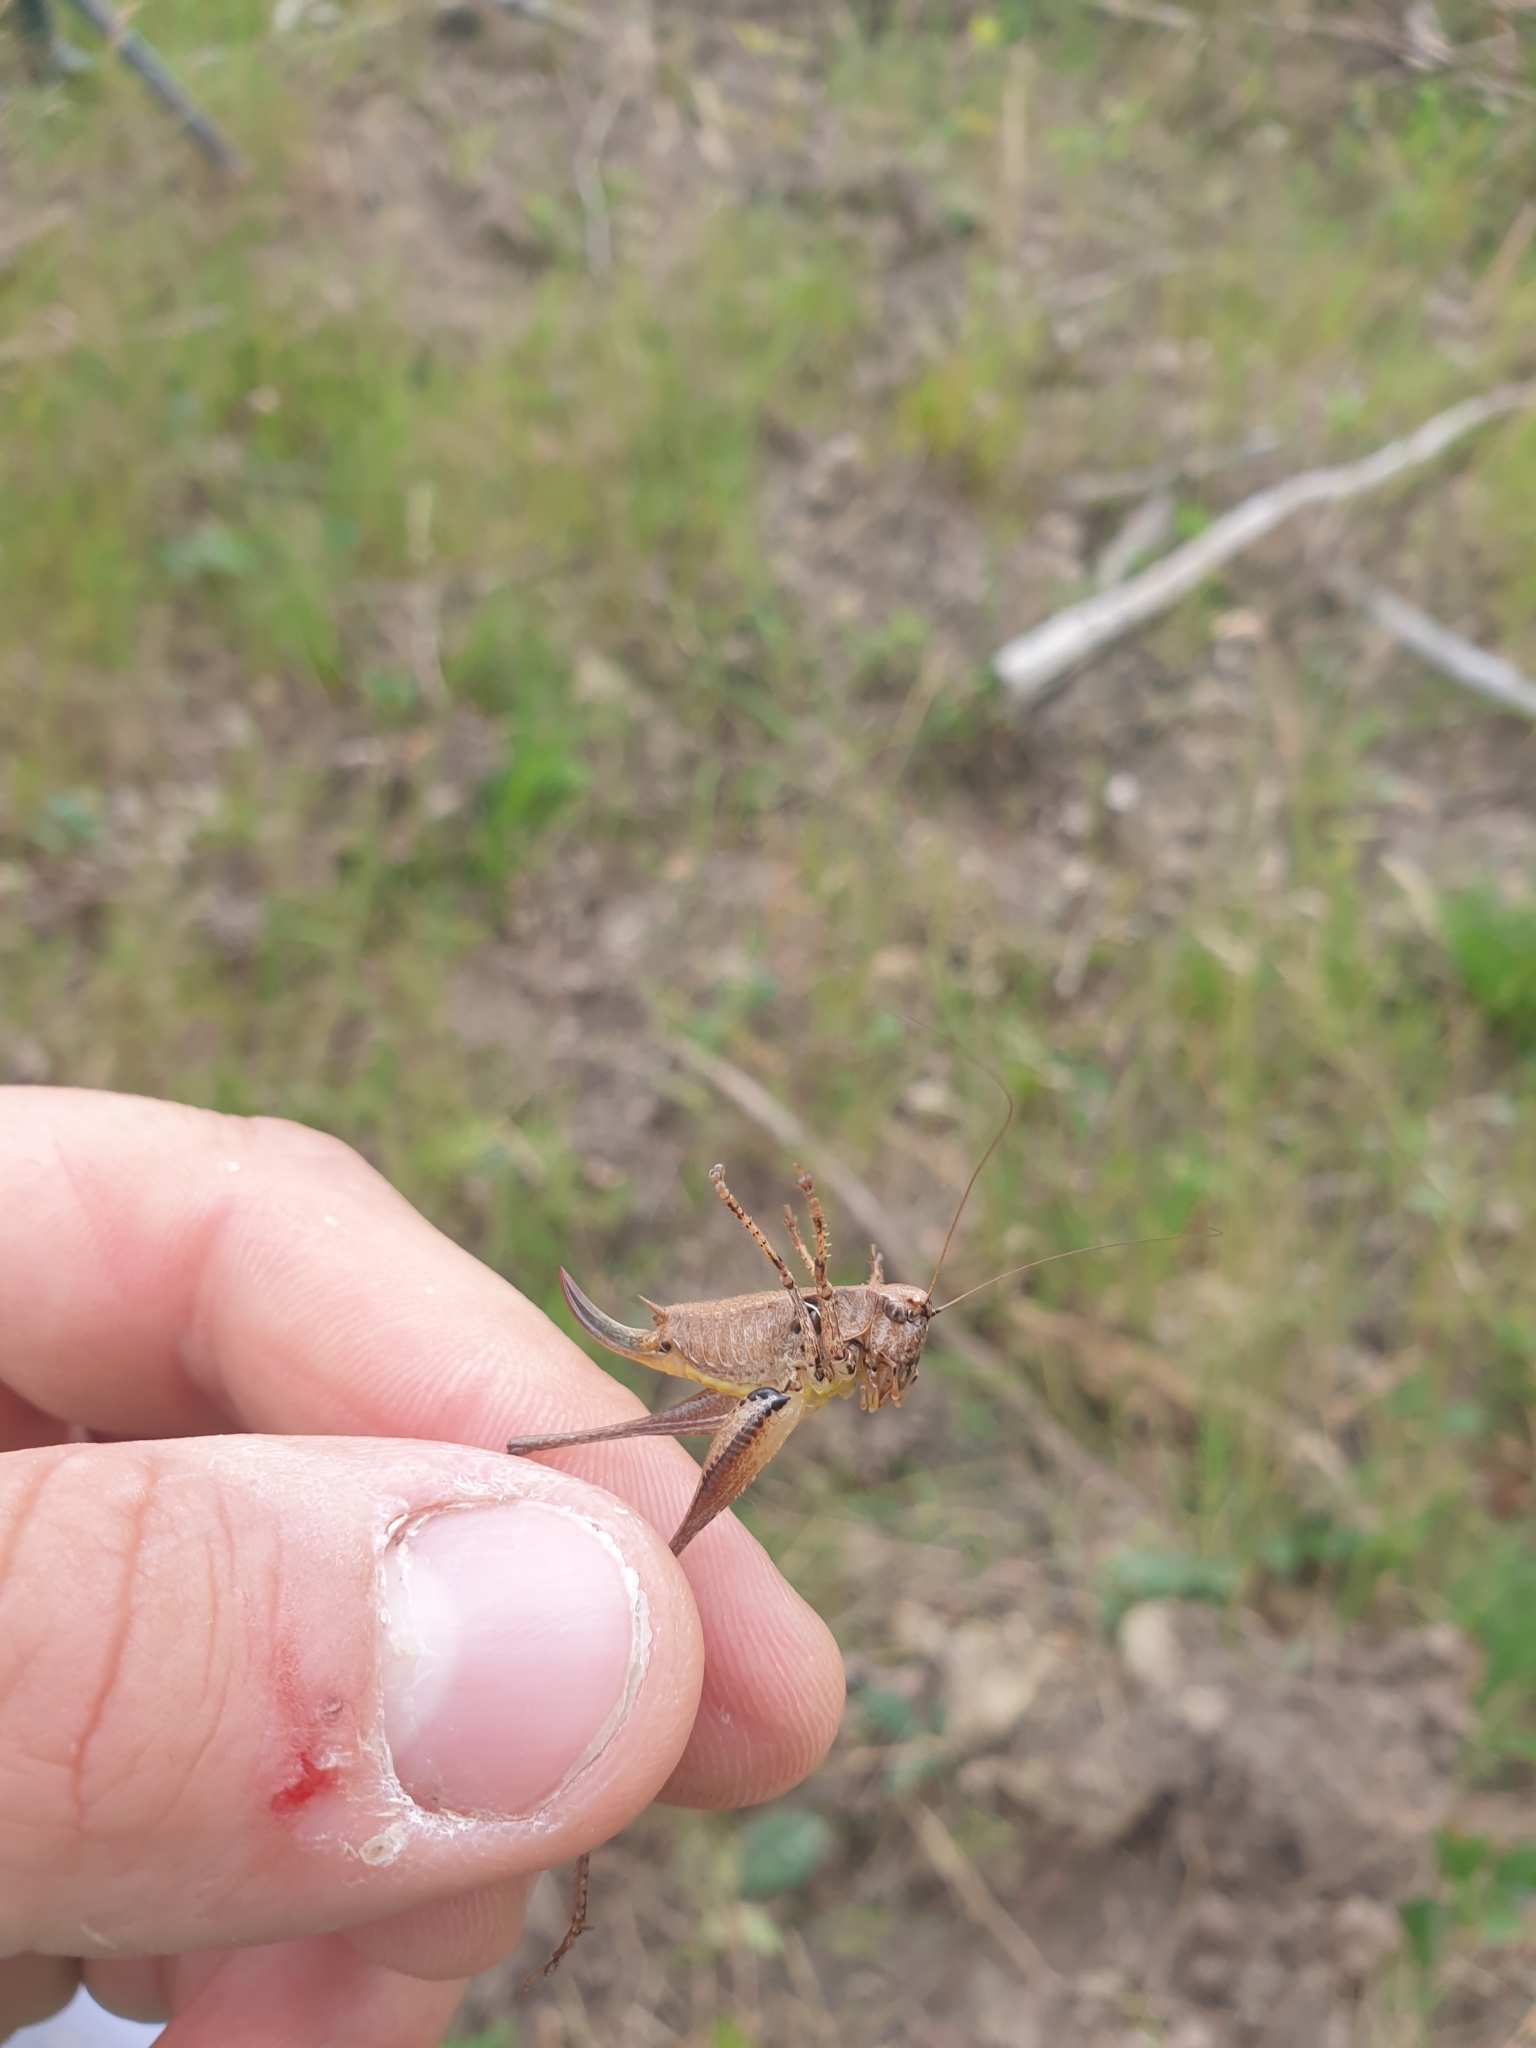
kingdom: Animalia
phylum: Arthropoda
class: Insecta
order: Orthoptera
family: Tettigoniidae
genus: Pholidoptera
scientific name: Pholidoptera griseoaptera
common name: Dark bush-cricket
